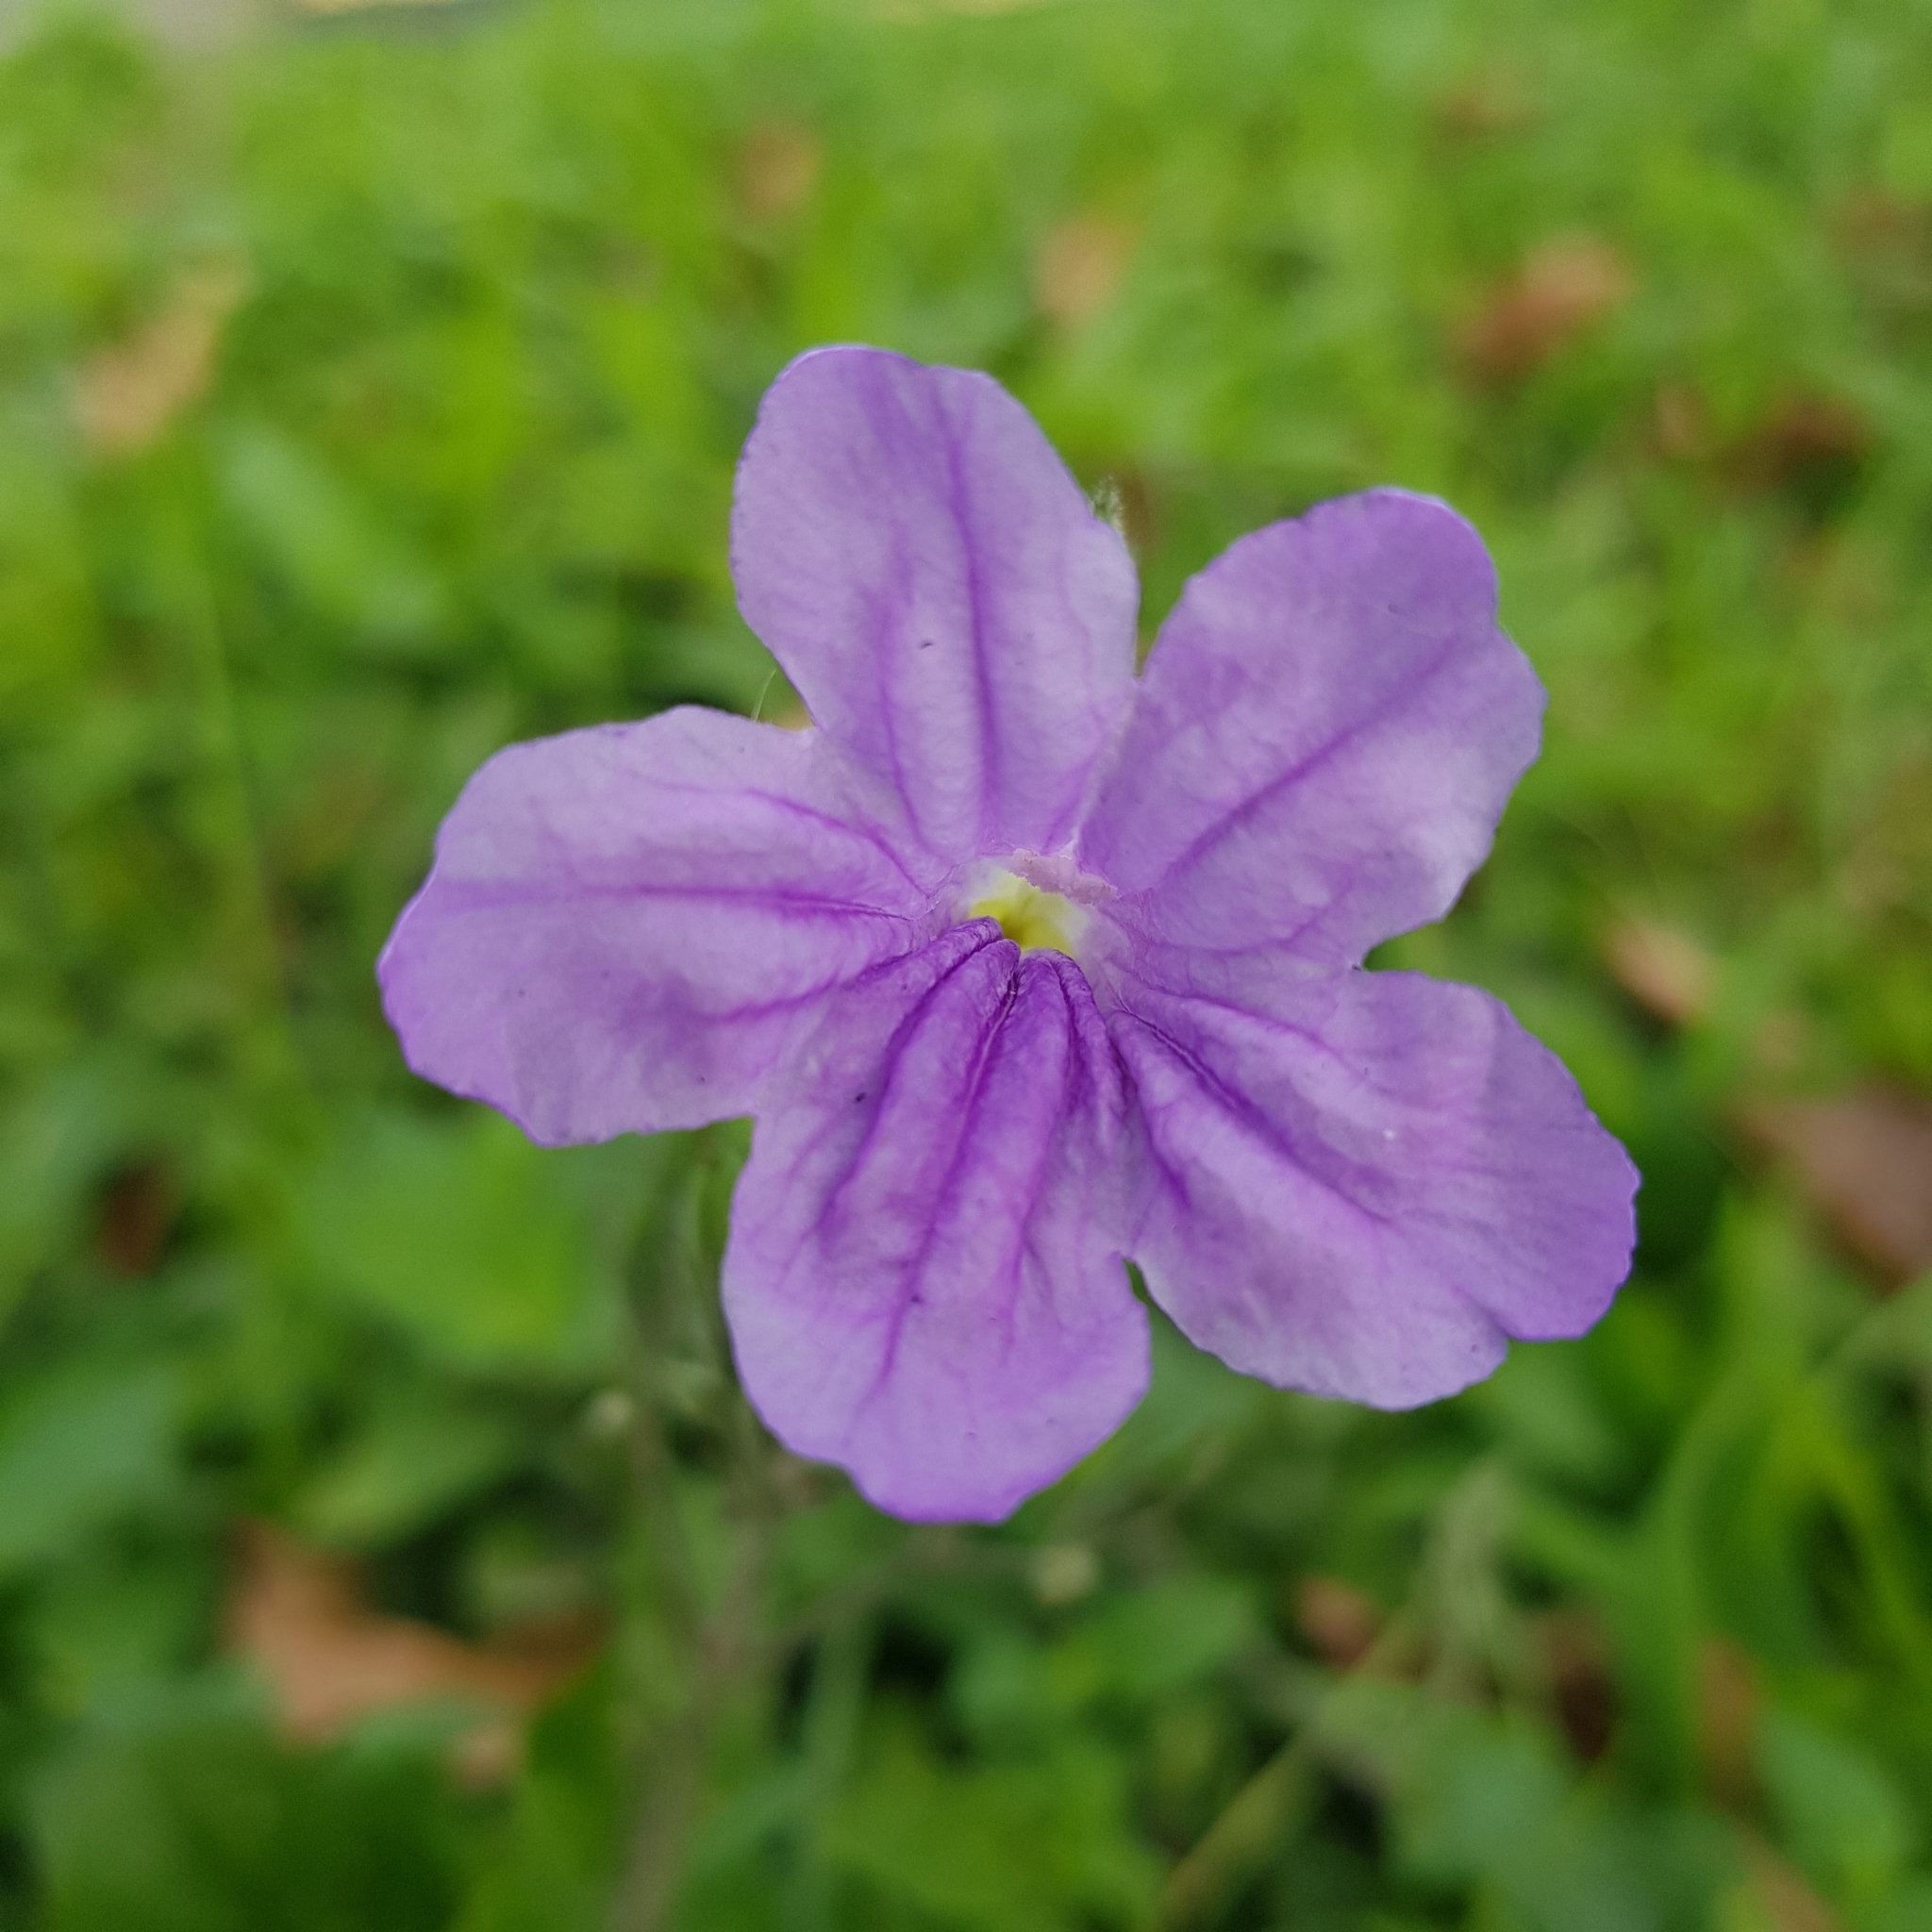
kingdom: Plantae
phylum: Tracheophyta
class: Magnoliopsida
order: Lamiales
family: Acanthaceae
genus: Ruellia
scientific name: Ruellia ciliatiflora
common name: Hairyflower wild petunia
